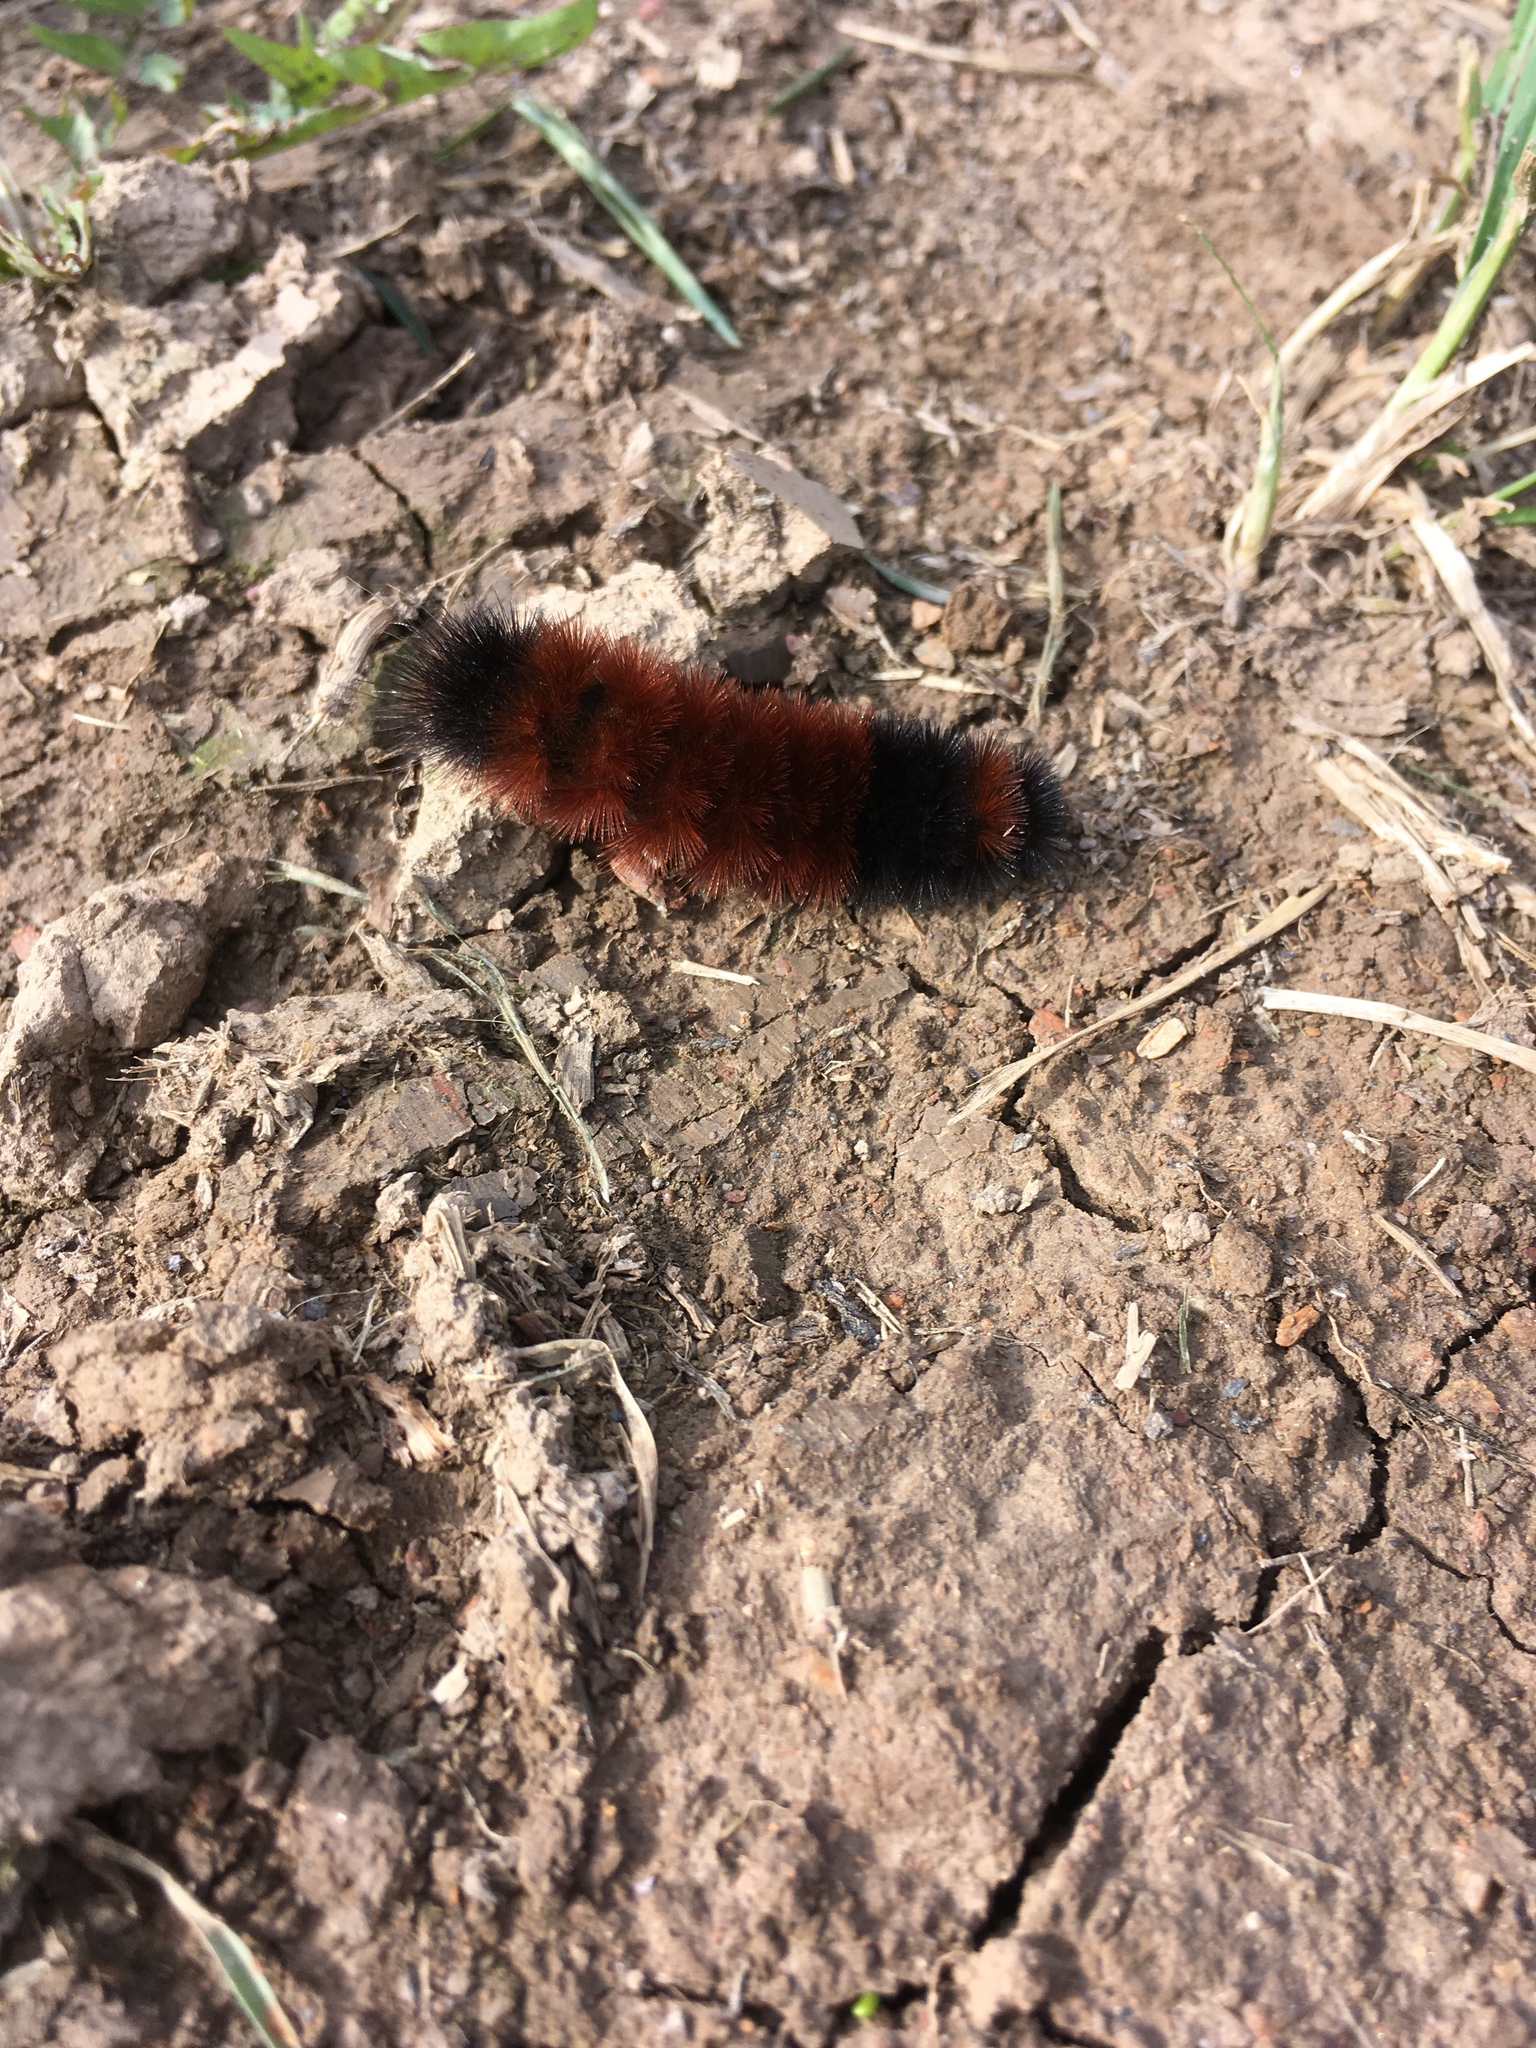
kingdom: Animalia
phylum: Arthropoda
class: Insecta
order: Lepidoptera
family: Erebidae
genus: Pyrrharctia
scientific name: Pyrrharctia isabella
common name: Isabella tiger moth
